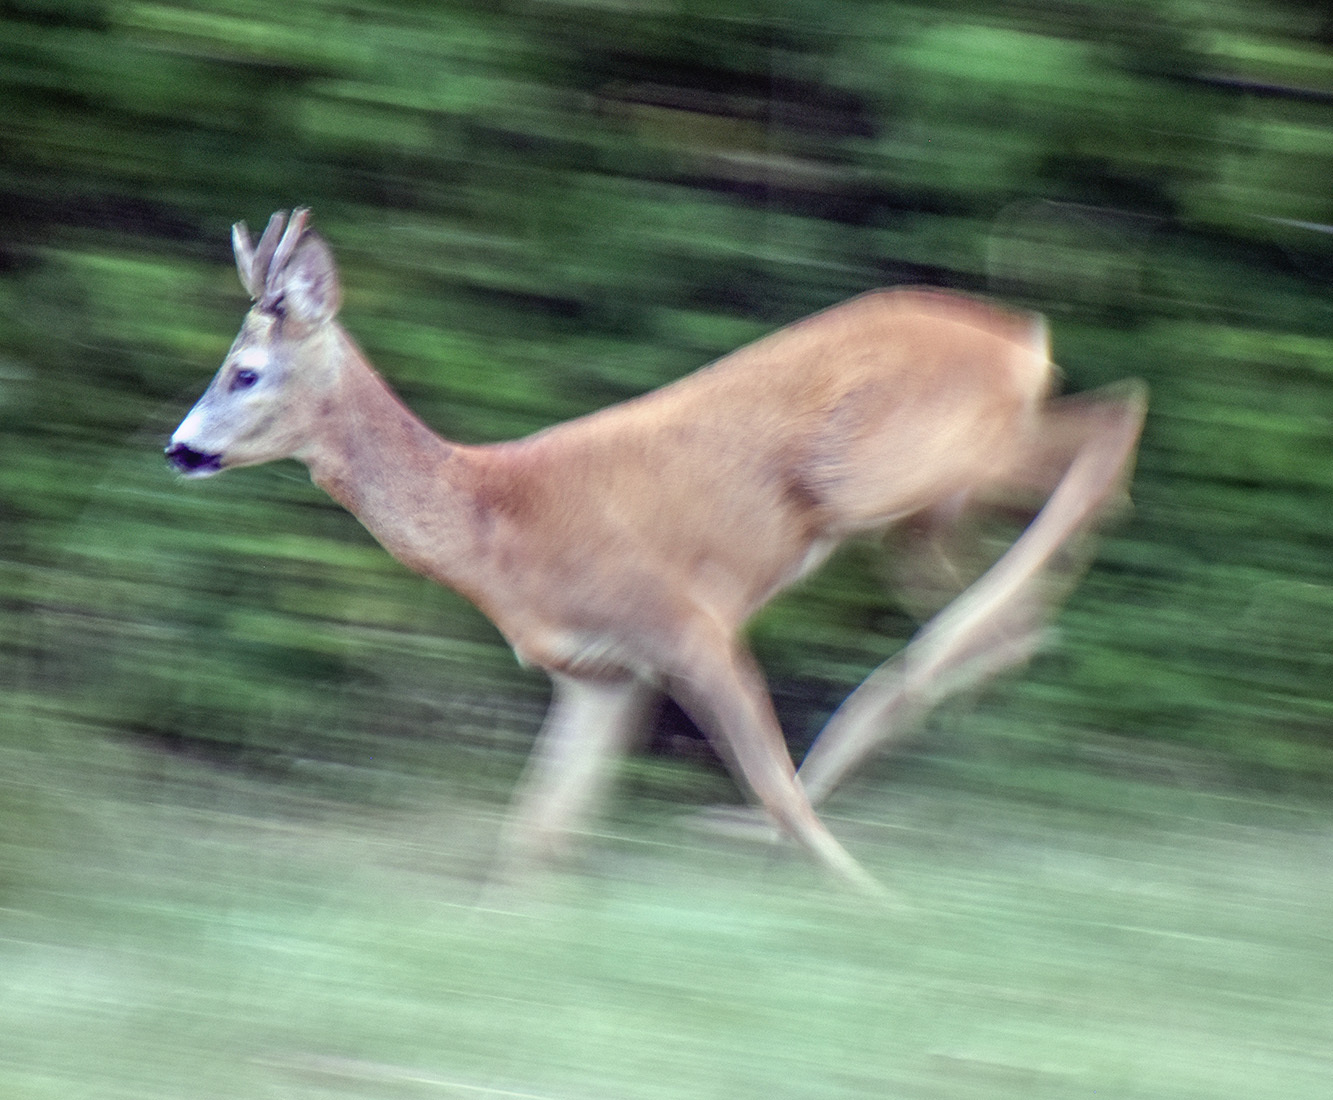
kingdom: Animalia
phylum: Chordata
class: Mammalia
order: Artiodactyla
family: Cervidae
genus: Capreolus
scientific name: Capreolus capreolus
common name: Western roe deer
